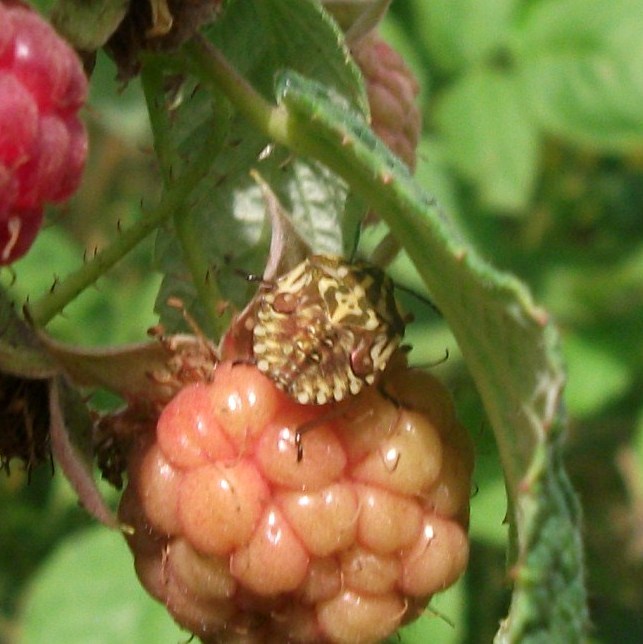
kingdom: Animalia
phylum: Arthropoda
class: Insecta
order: Hemiptera
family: Pentatomidae
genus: Carpocoris
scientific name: Carpocoris purpureipennis
